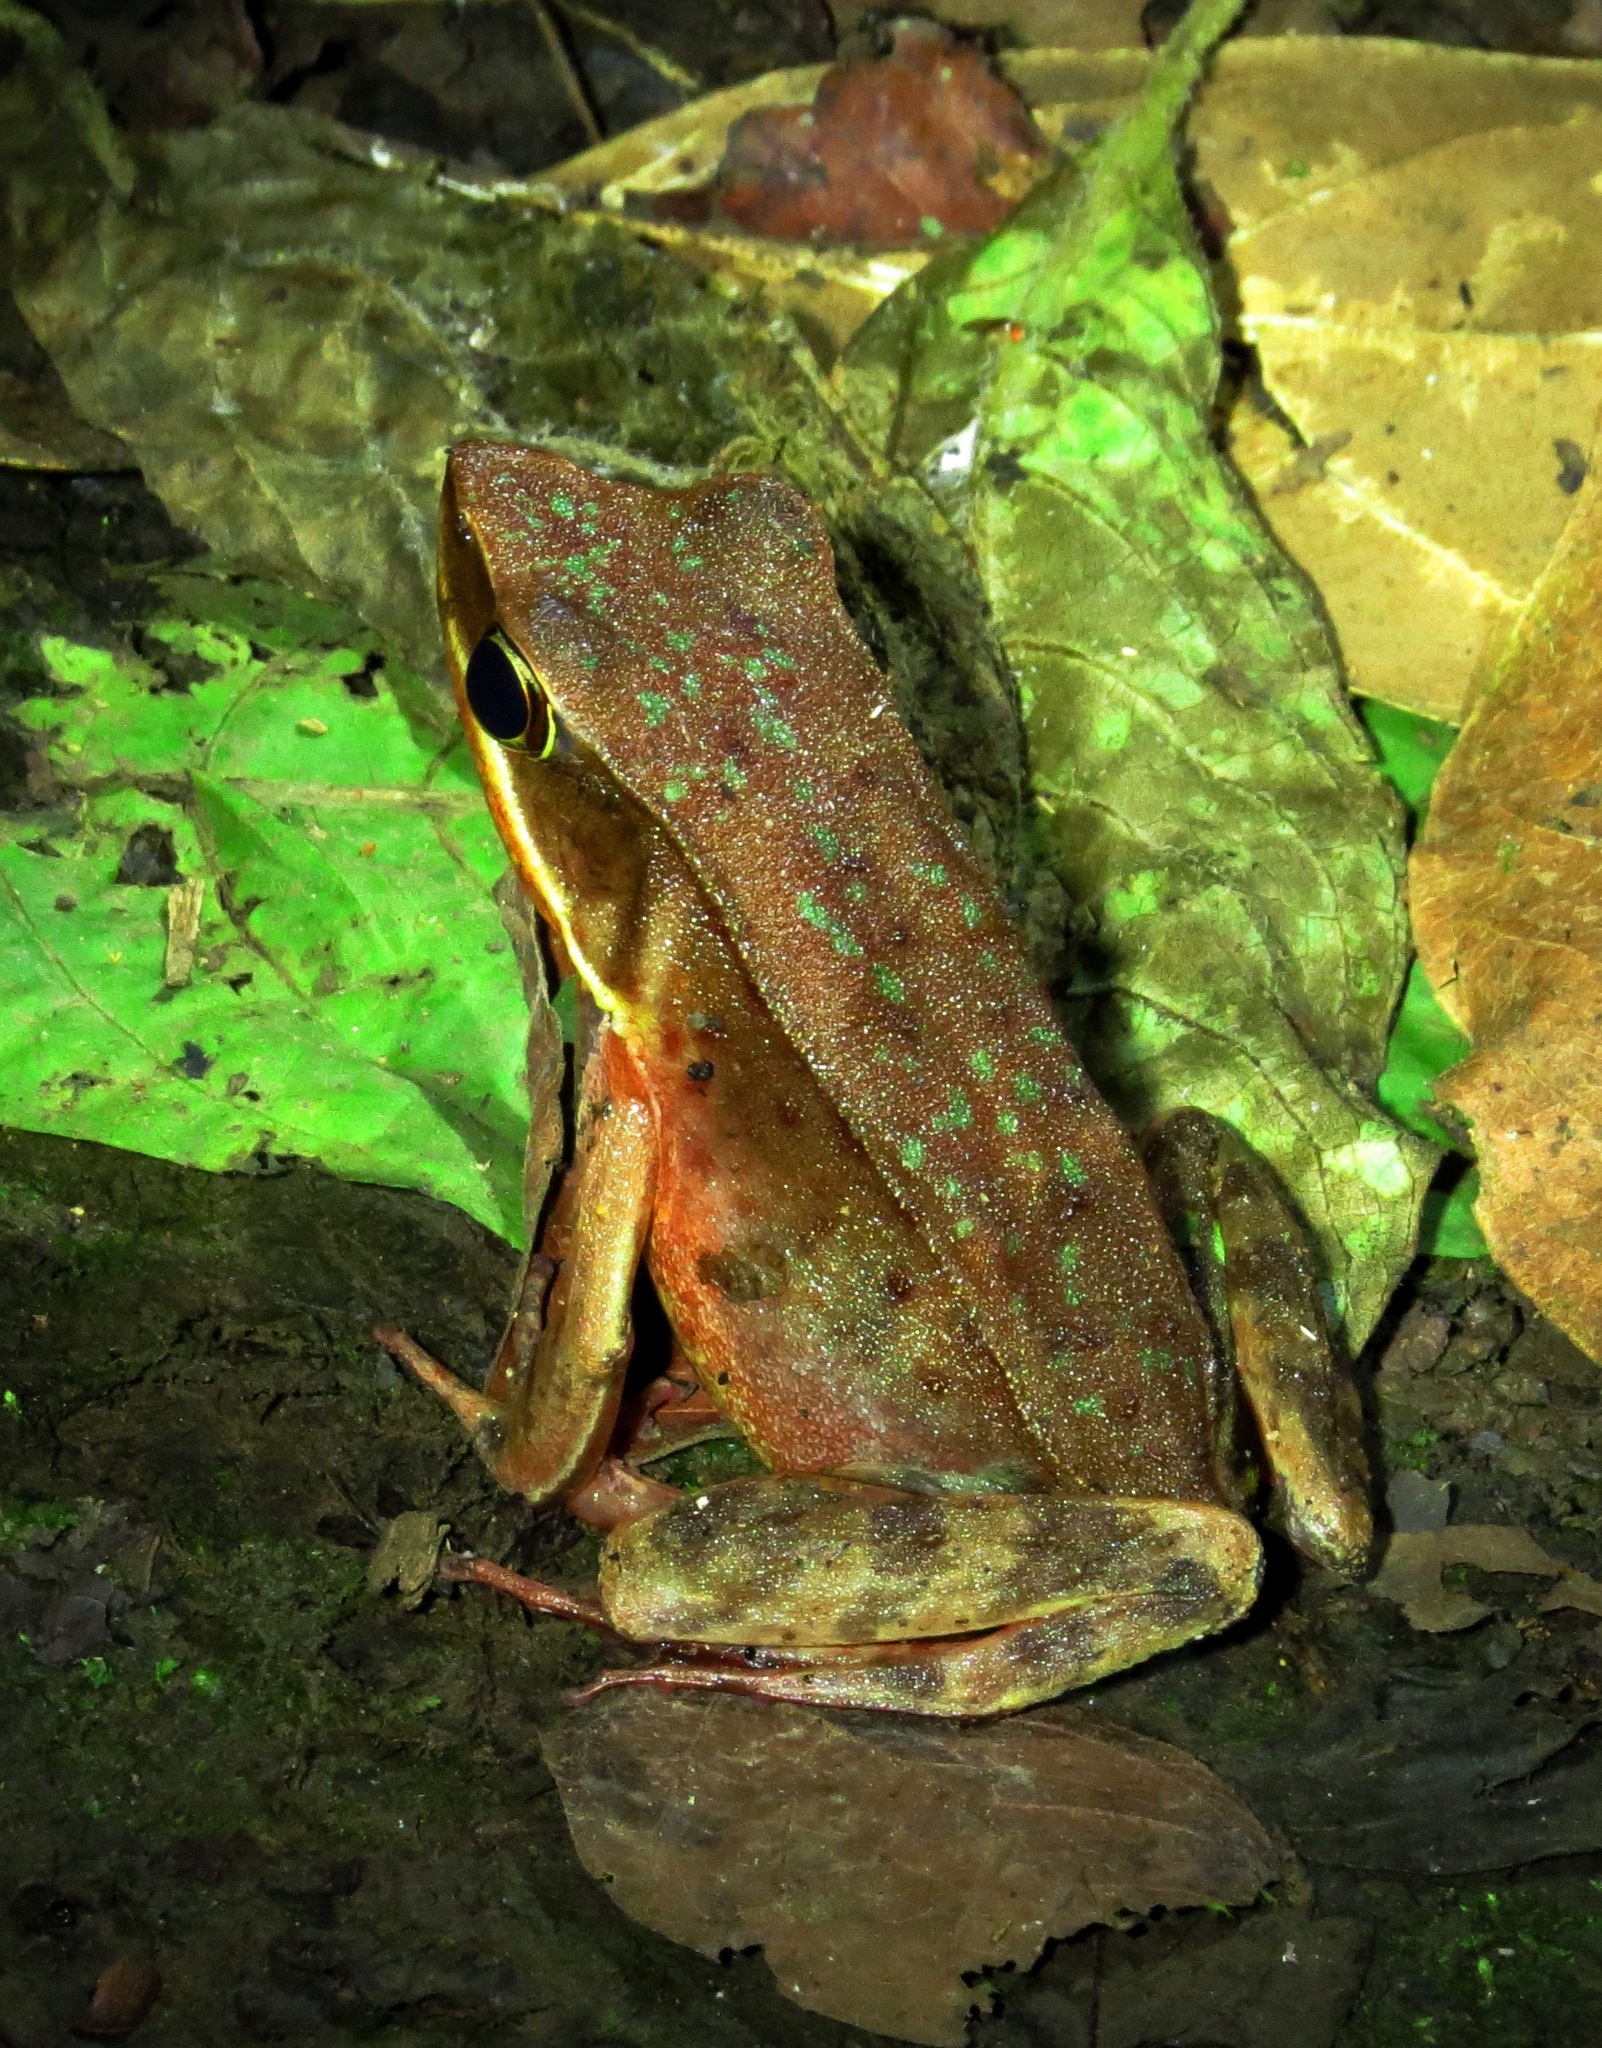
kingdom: Animalia
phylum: Chordata
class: Amphibia
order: Anura
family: Ranidae
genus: Lithobates
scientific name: Lithobates warszewitschii
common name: Warszewitsch's frog
